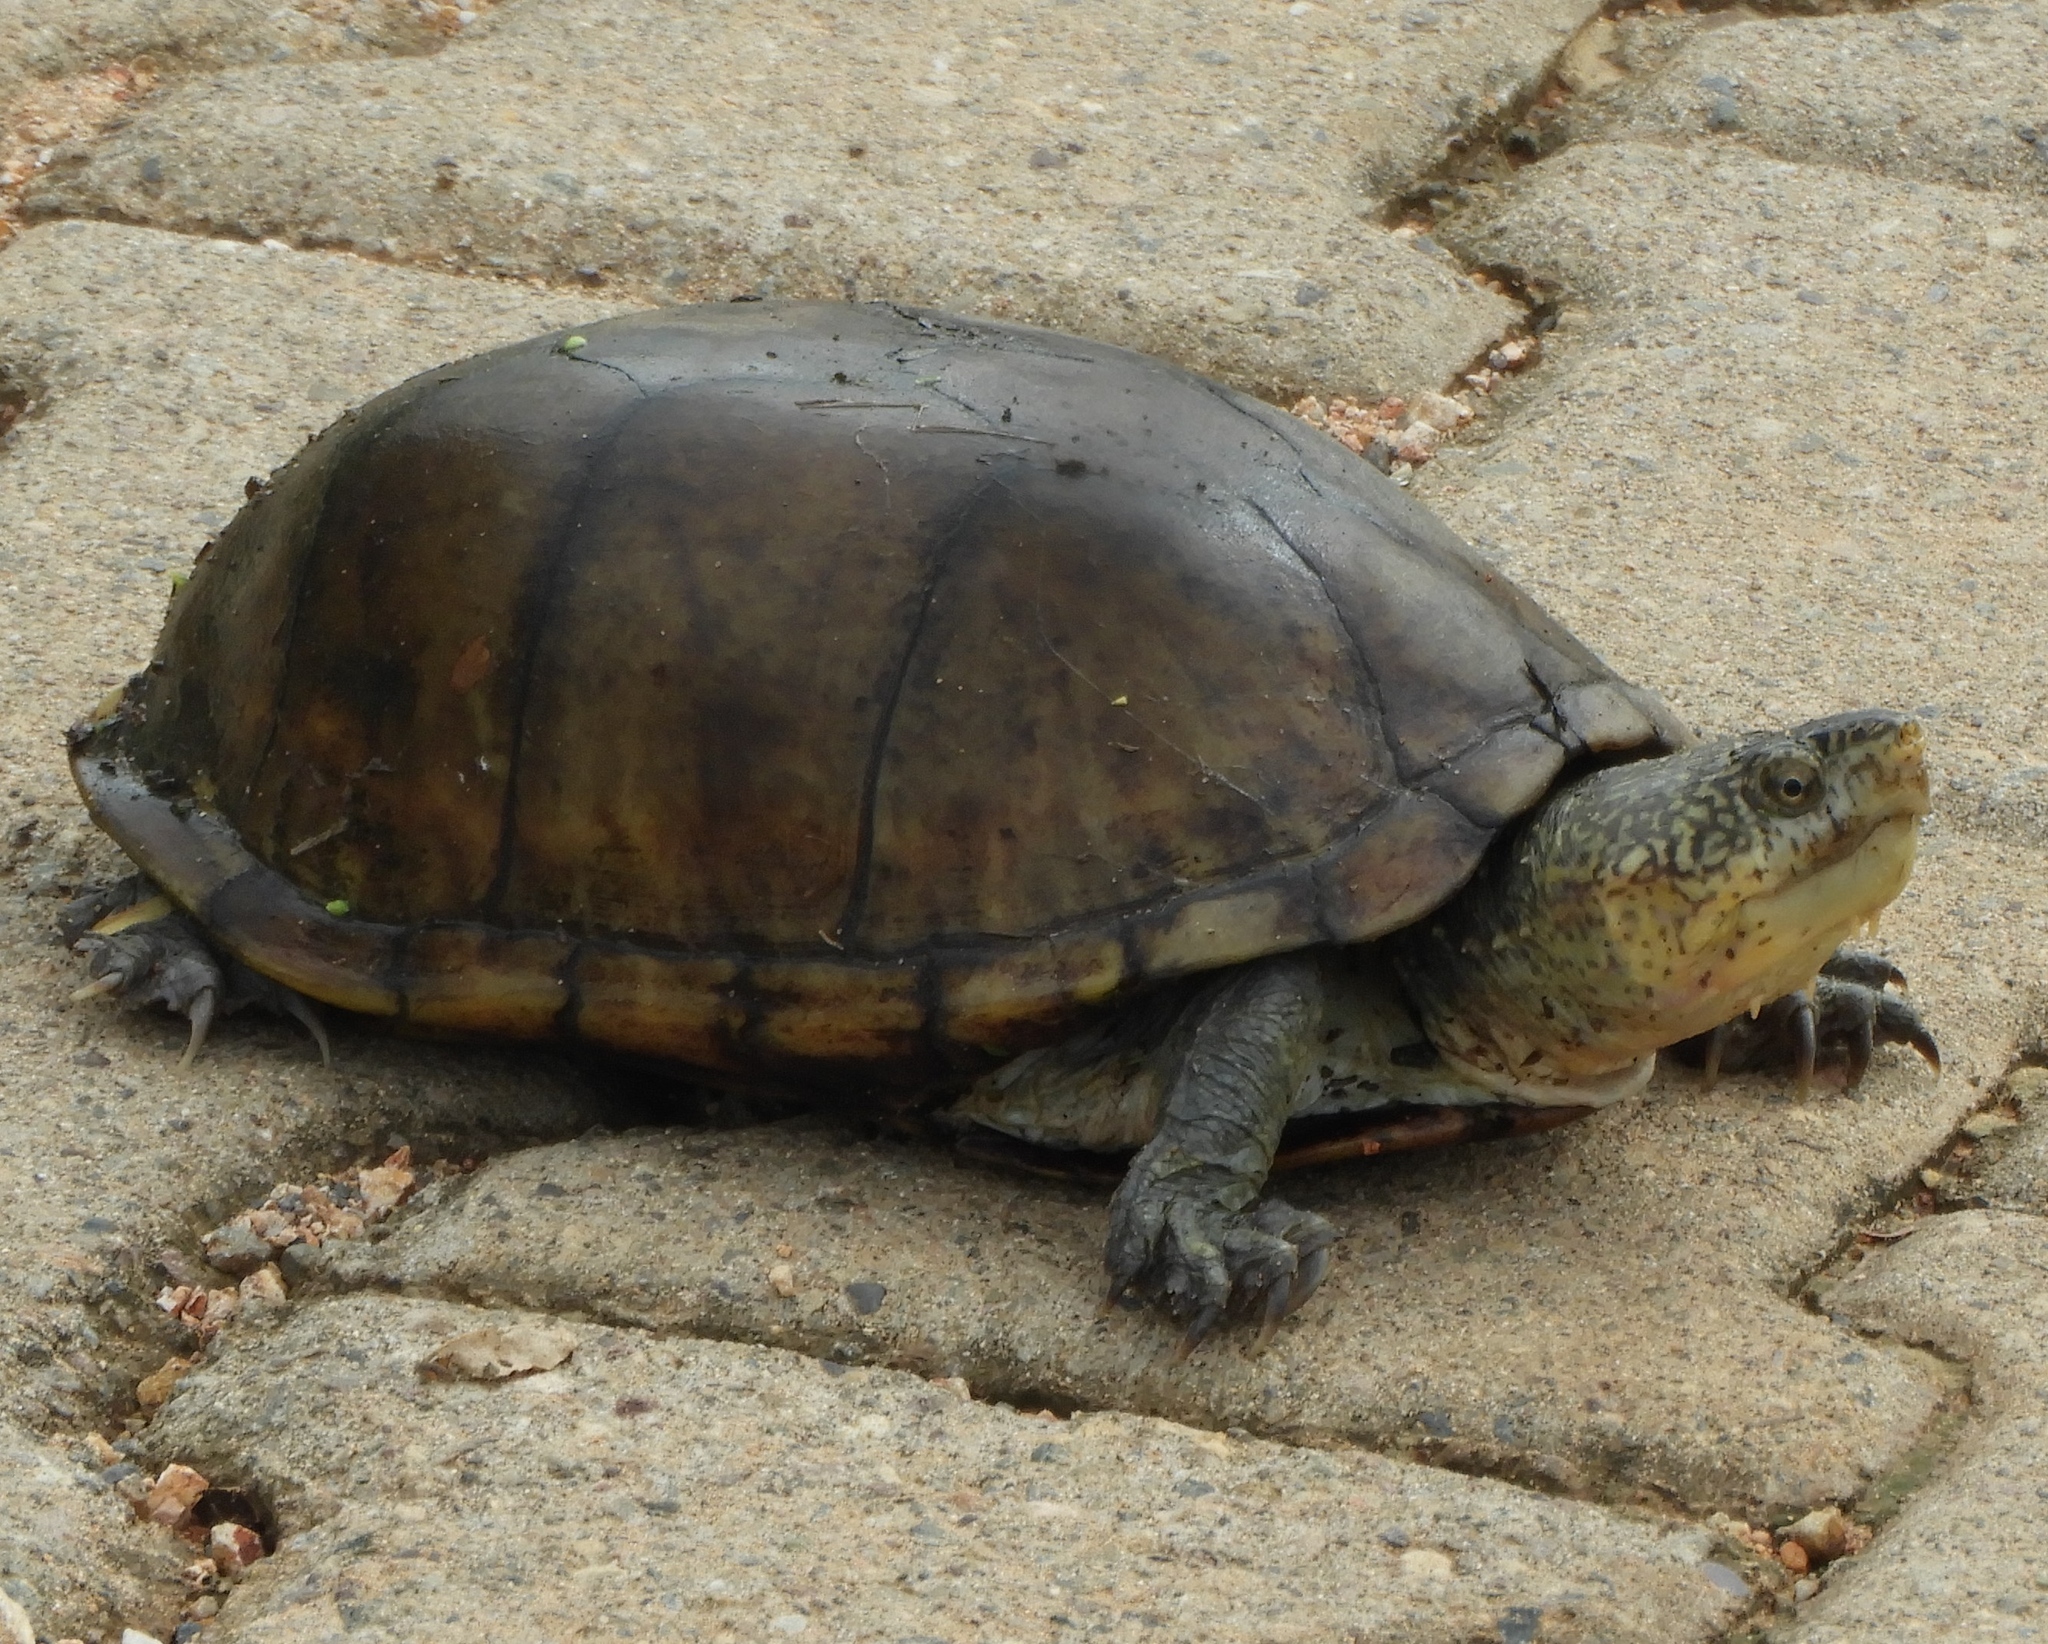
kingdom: Animalia
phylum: Chordata
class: Testudines
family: Kinosternidae
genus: Kinosternon
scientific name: Kinosternon integrum
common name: Mexican mud turtle
